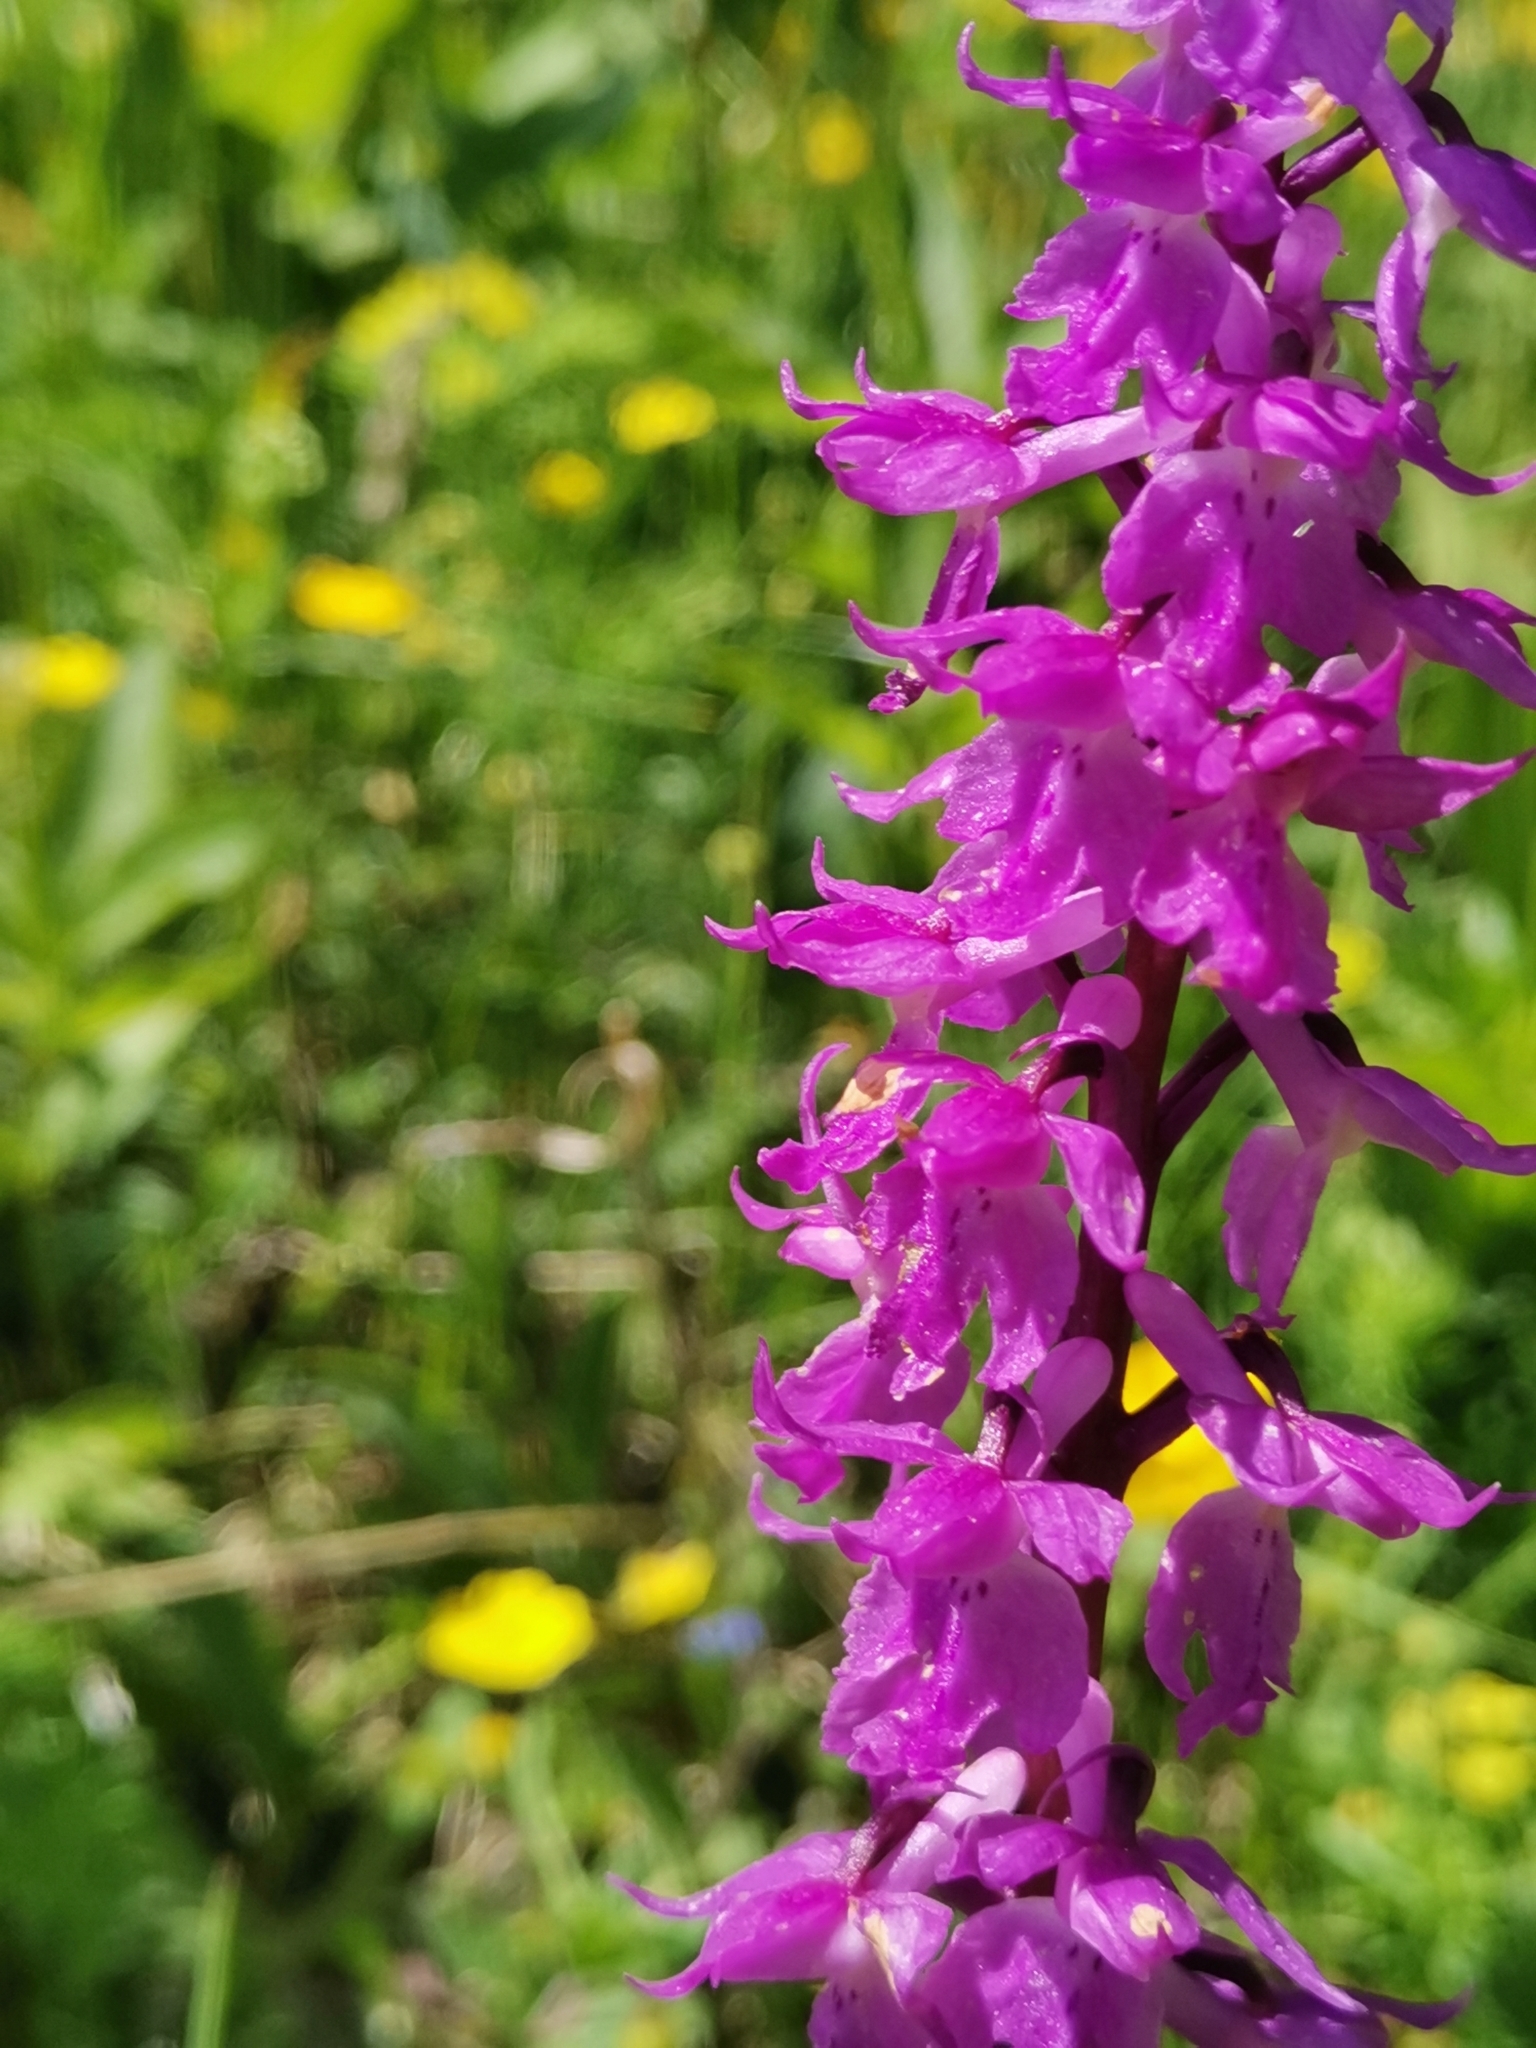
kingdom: Plantae
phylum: Tracheophyta
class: Liliopsida
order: Asparagales
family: Orchidaceae
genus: Orchis
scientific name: Orchis mascula
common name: Early-purple orchid
